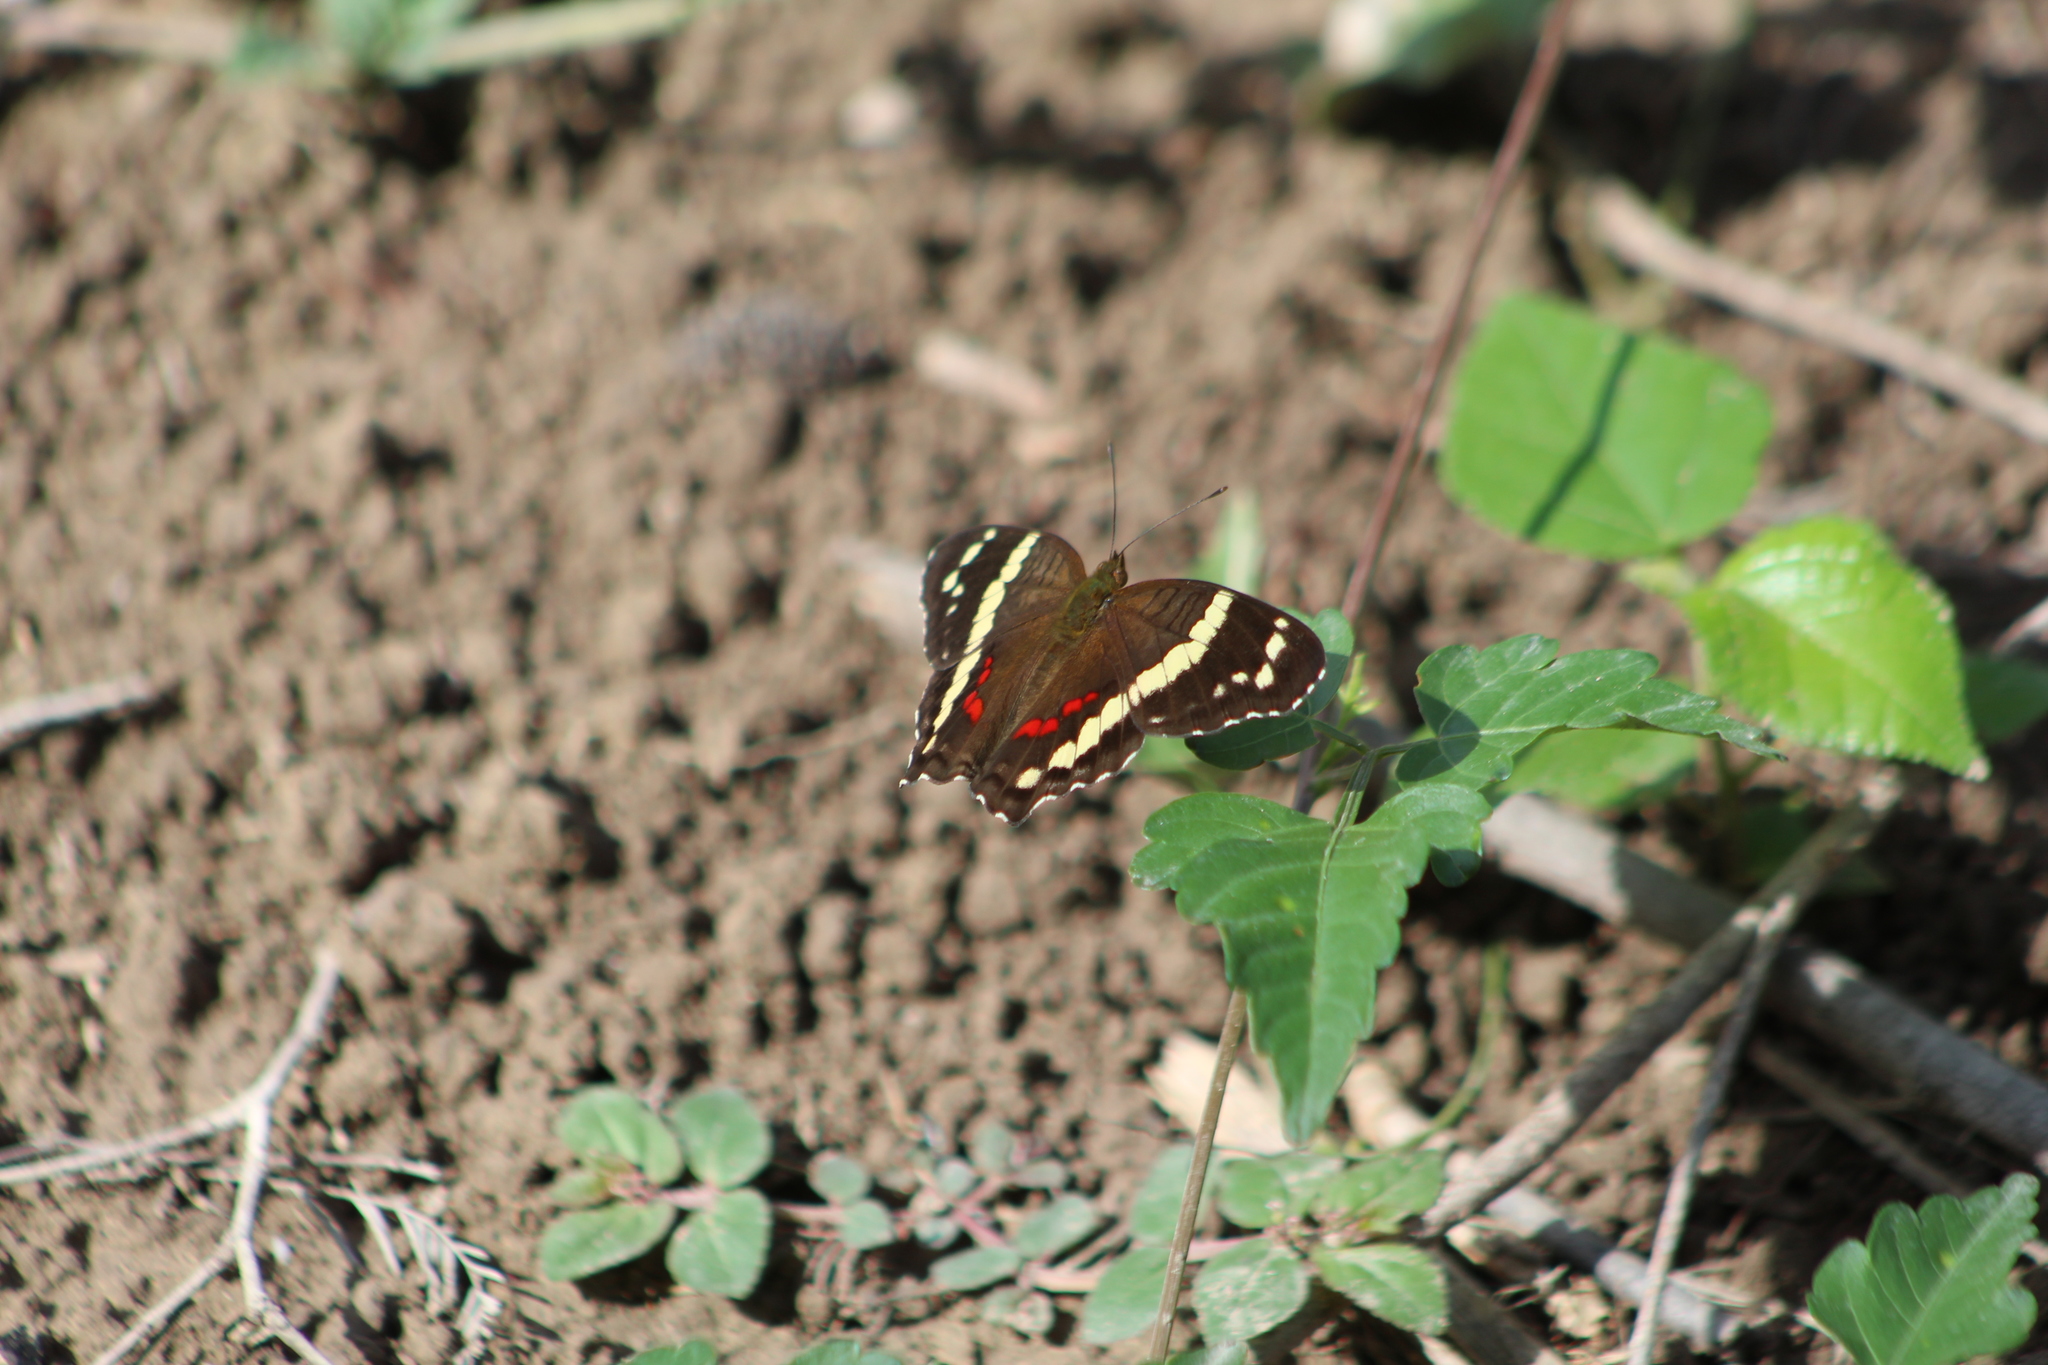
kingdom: Animalia
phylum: Arthropoda
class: Insecta
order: Lepidoptera
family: Nymphalidae
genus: Anartia
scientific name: Anartia fatima
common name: Banded peacock
